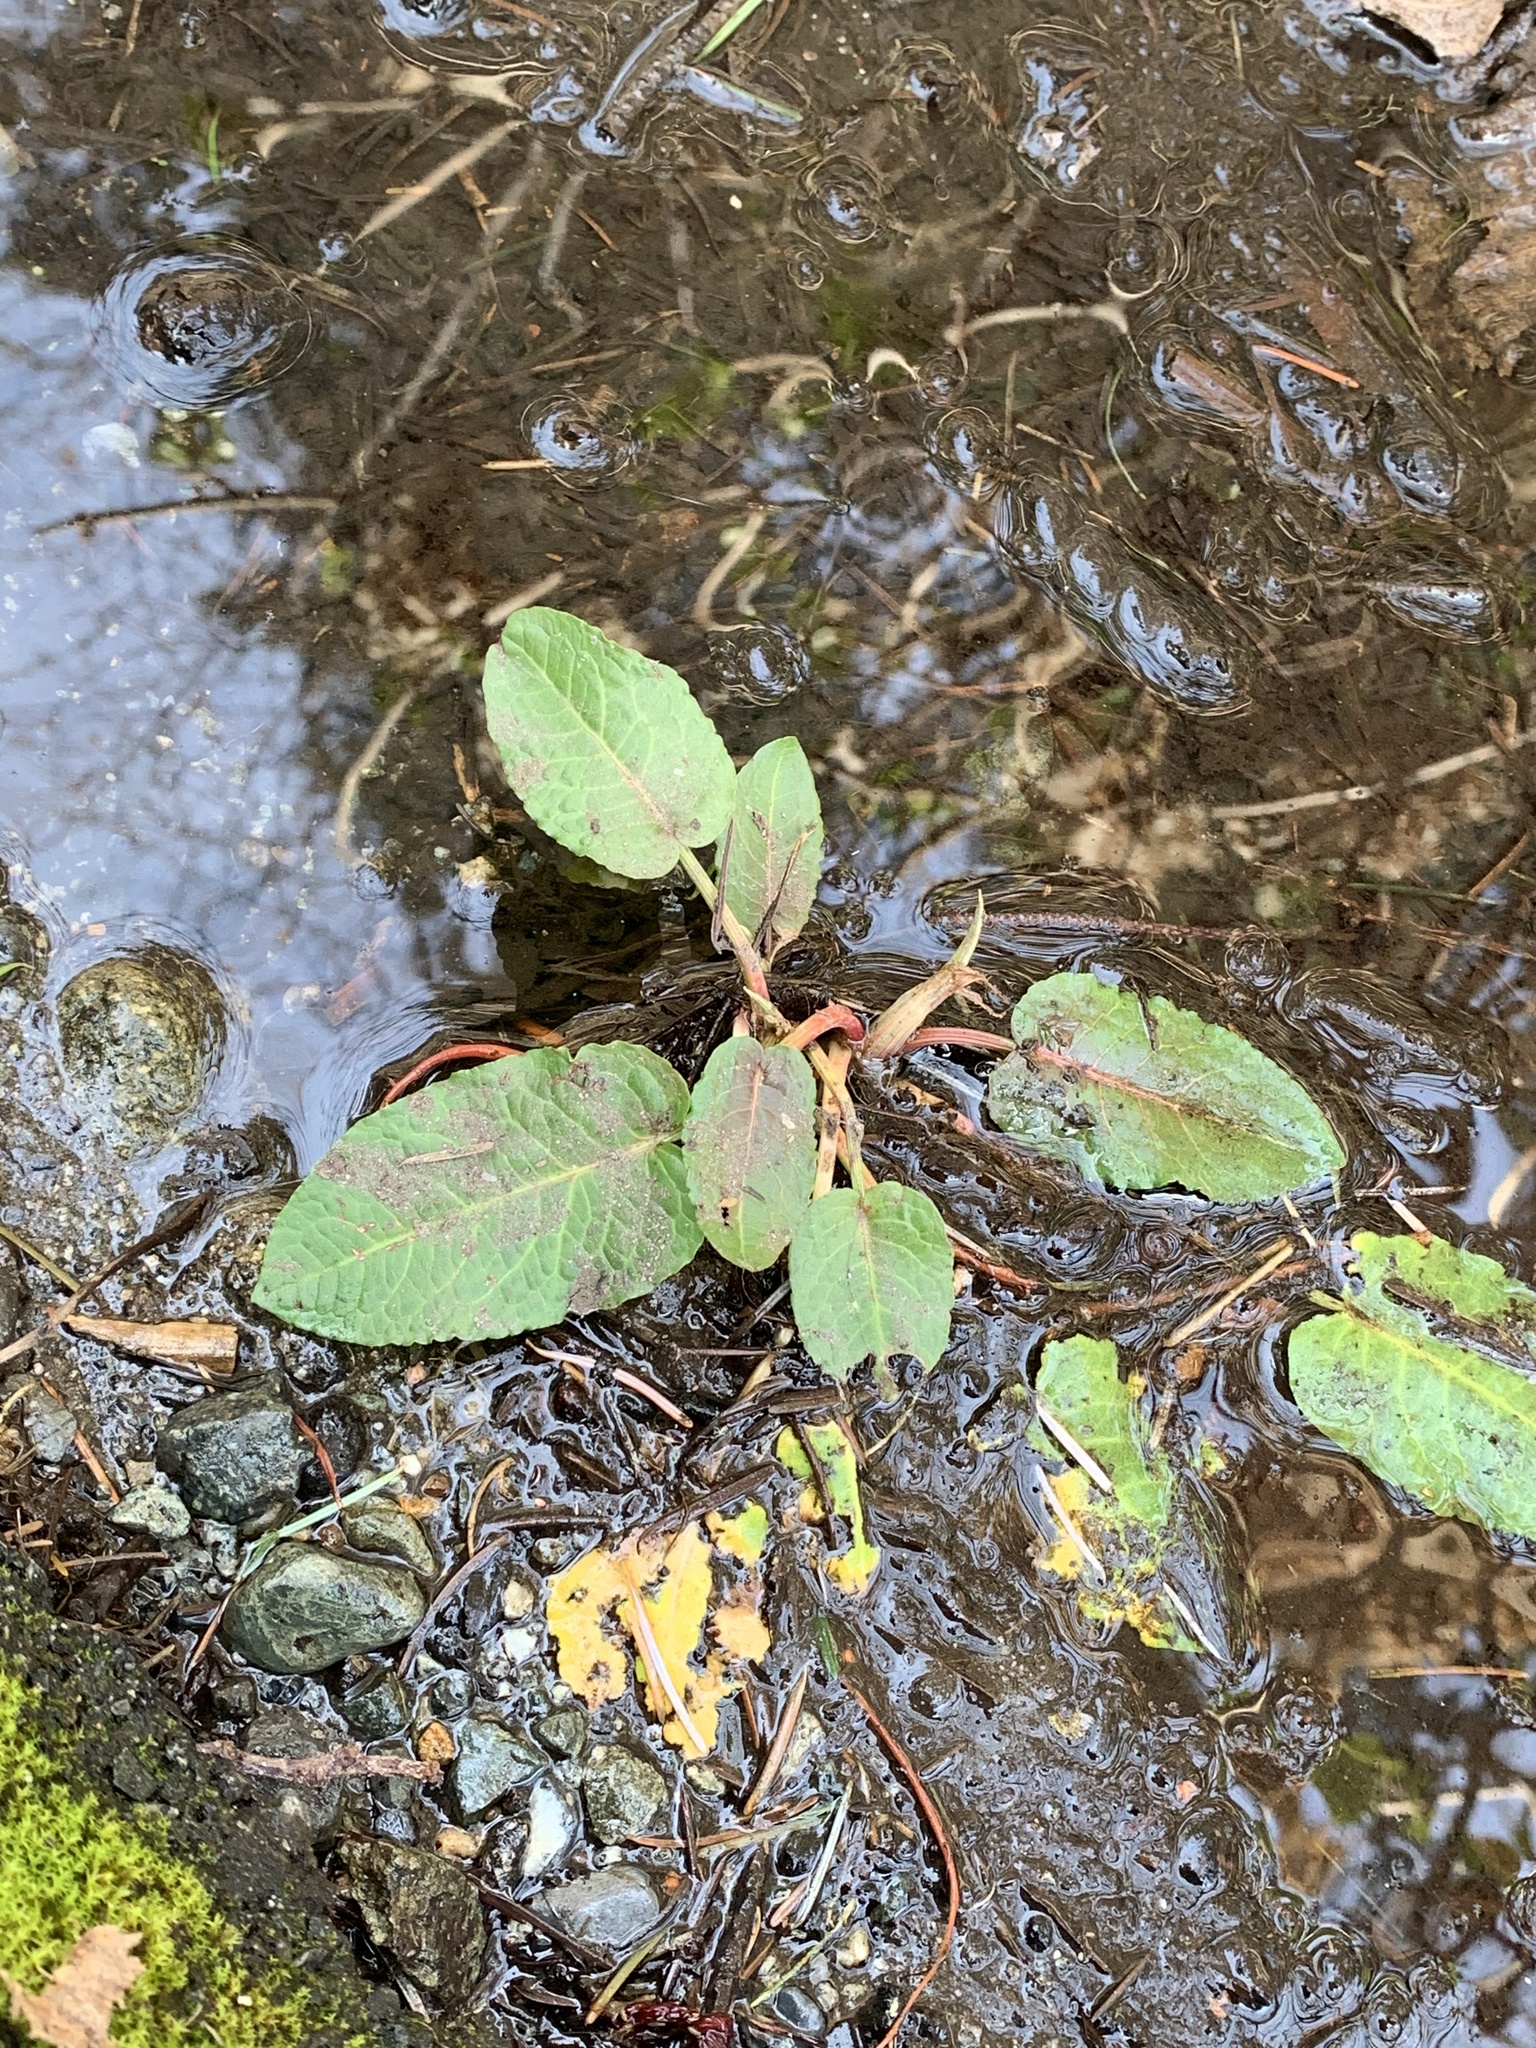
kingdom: Plantae
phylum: Tracheophyta
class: Magnoliopsida
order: Caryophyllales
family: Polygonaceae
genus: Rumex
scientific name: Rumex obtusifolius
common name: Bitter dock
